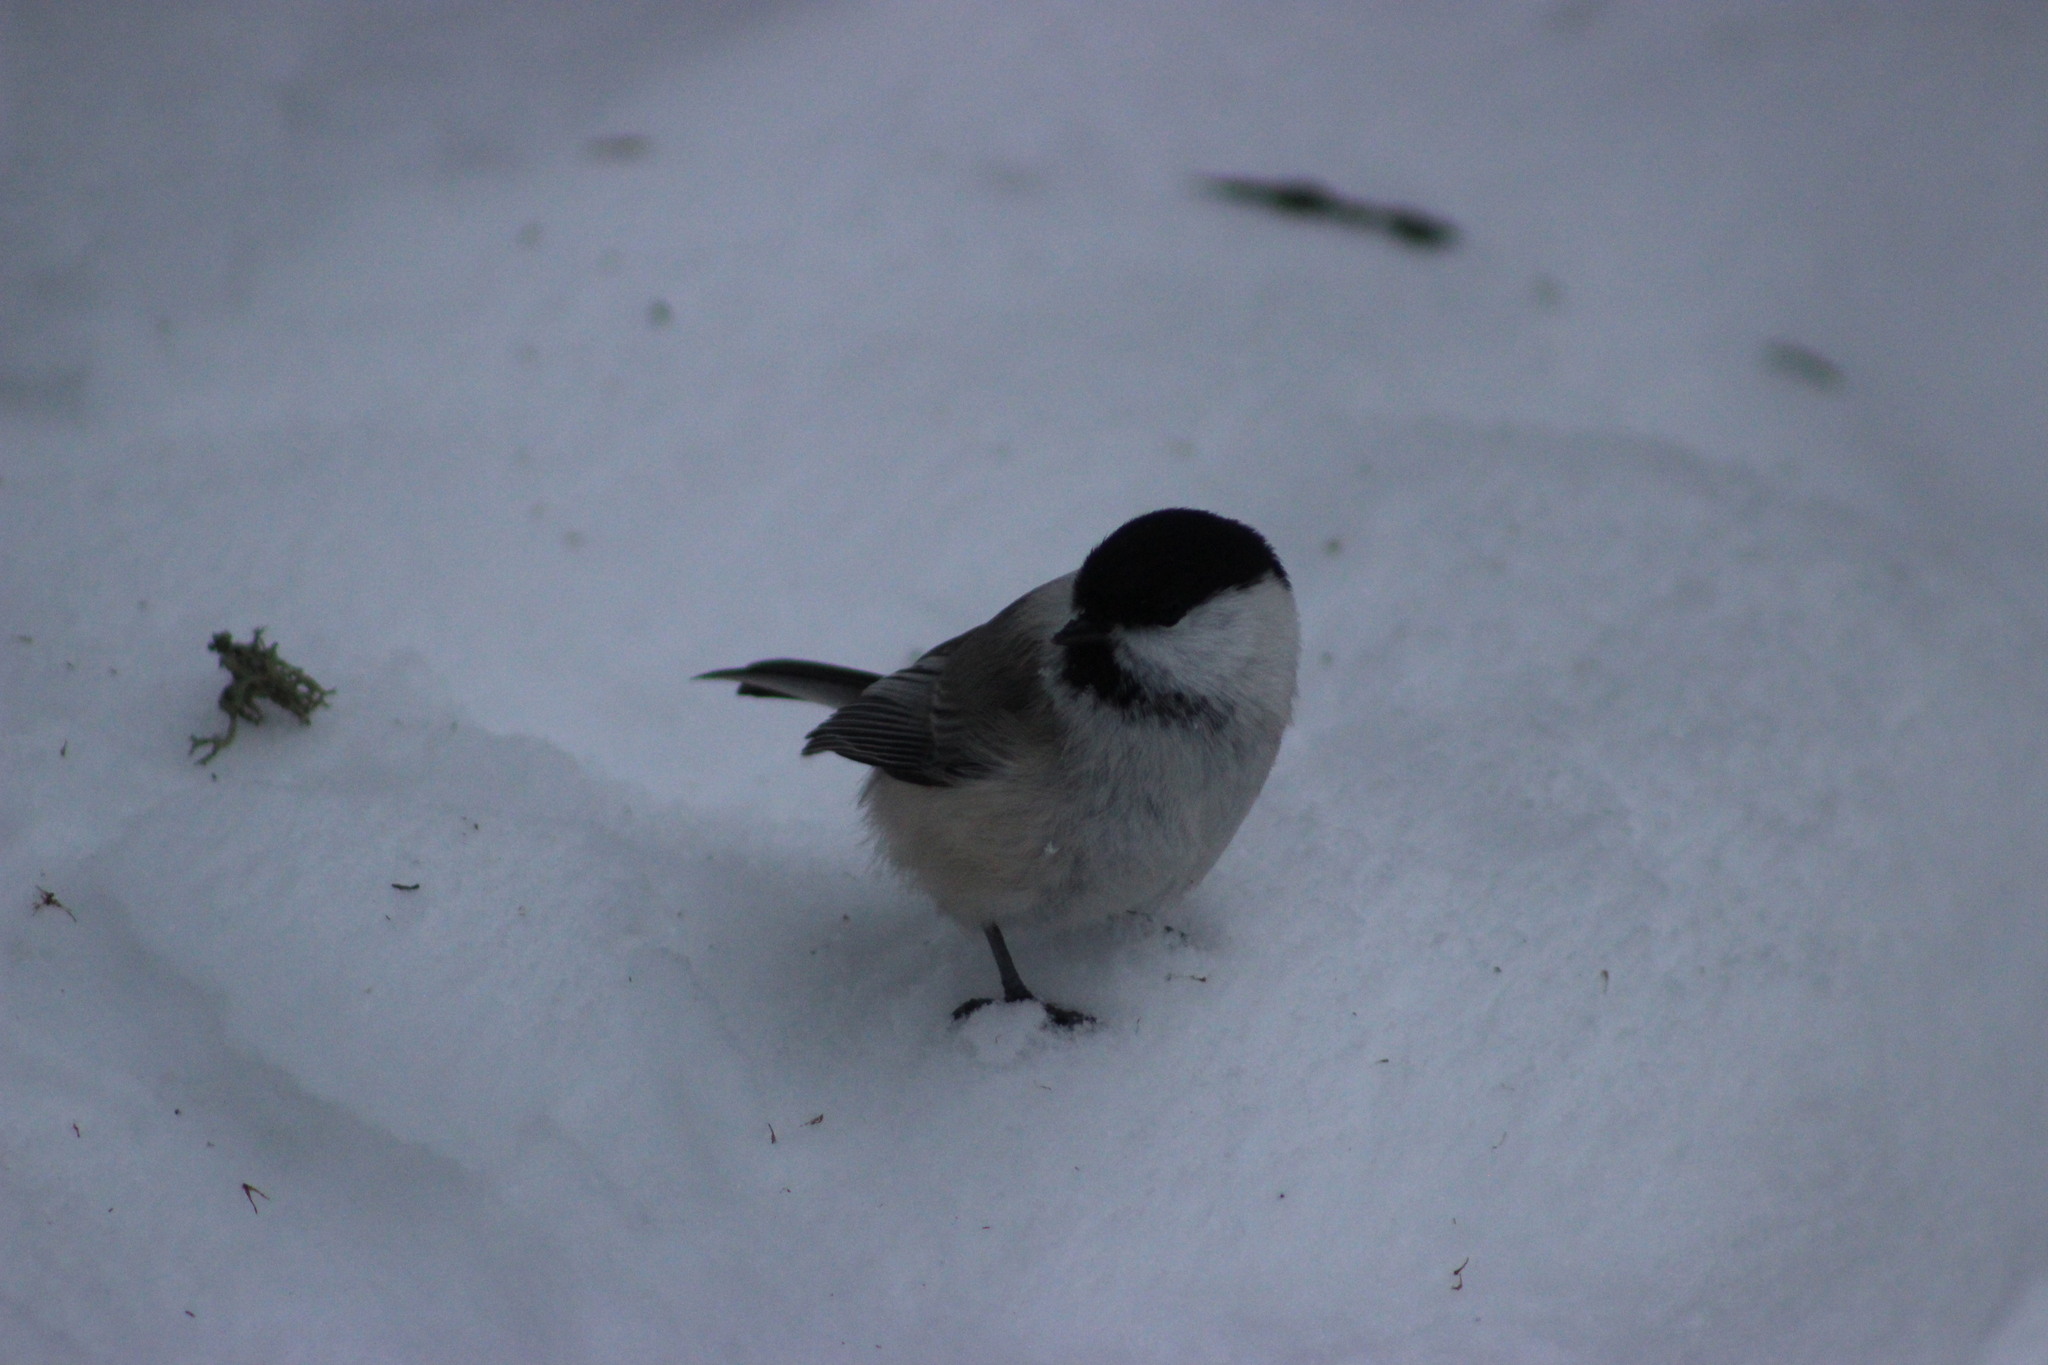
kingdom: Animalia
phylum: Chordata
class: Aves
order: Passeriformes
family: Paridae
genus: Poecile
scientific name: Poecile montanus
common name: Willow tit
